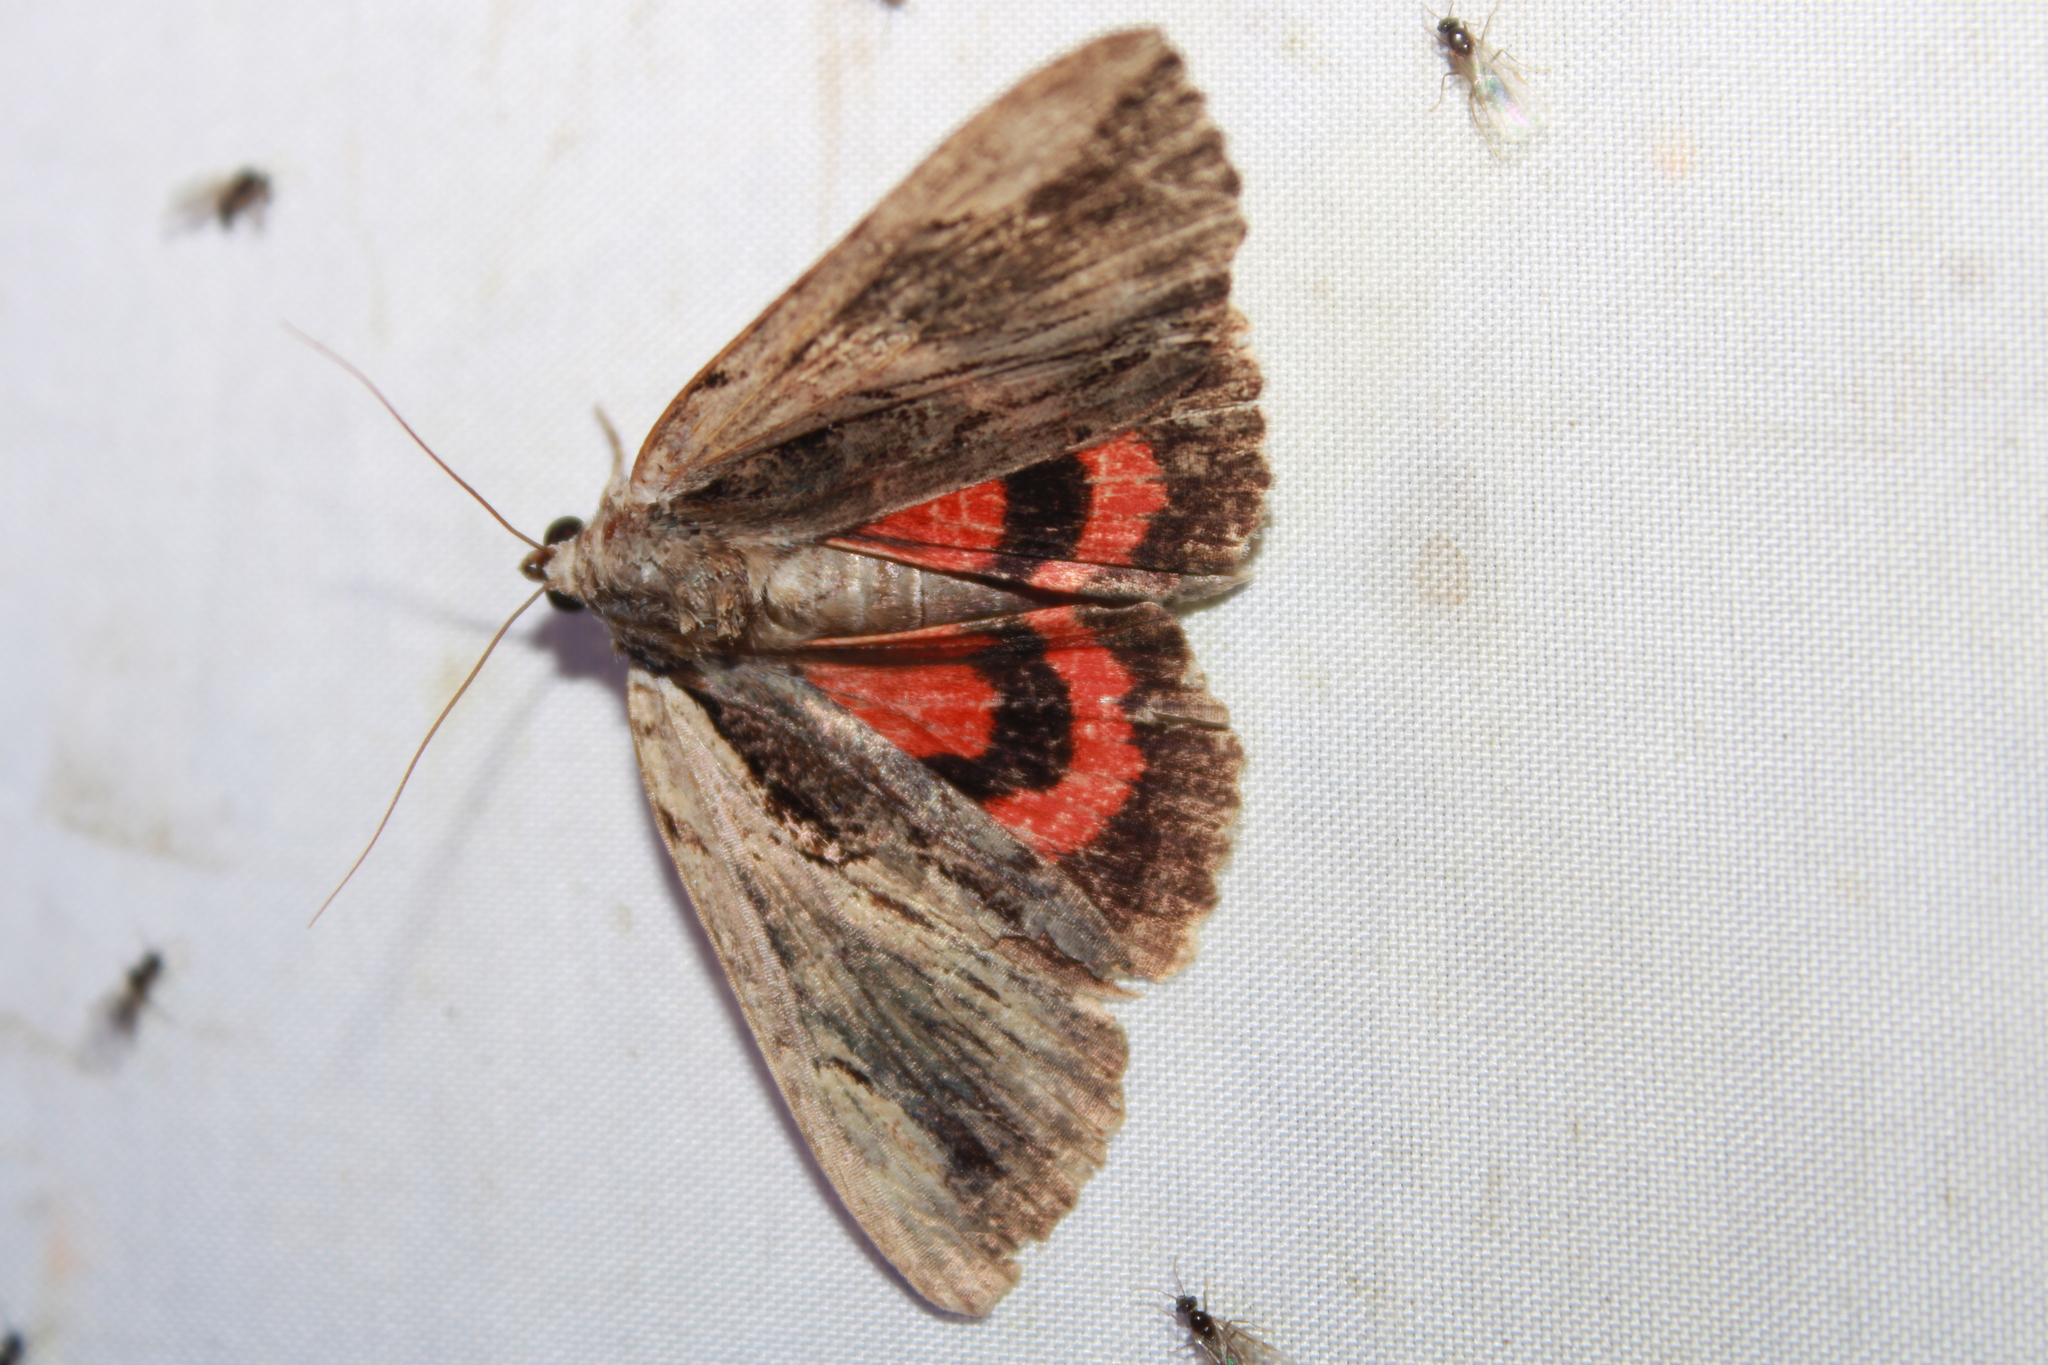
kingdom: Animalia
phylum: Arthropoda
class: Insecta
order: Lepidoptera
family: Erebidae
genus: Catocala
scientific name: Catocala ultronia
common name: Ultronia underwing
